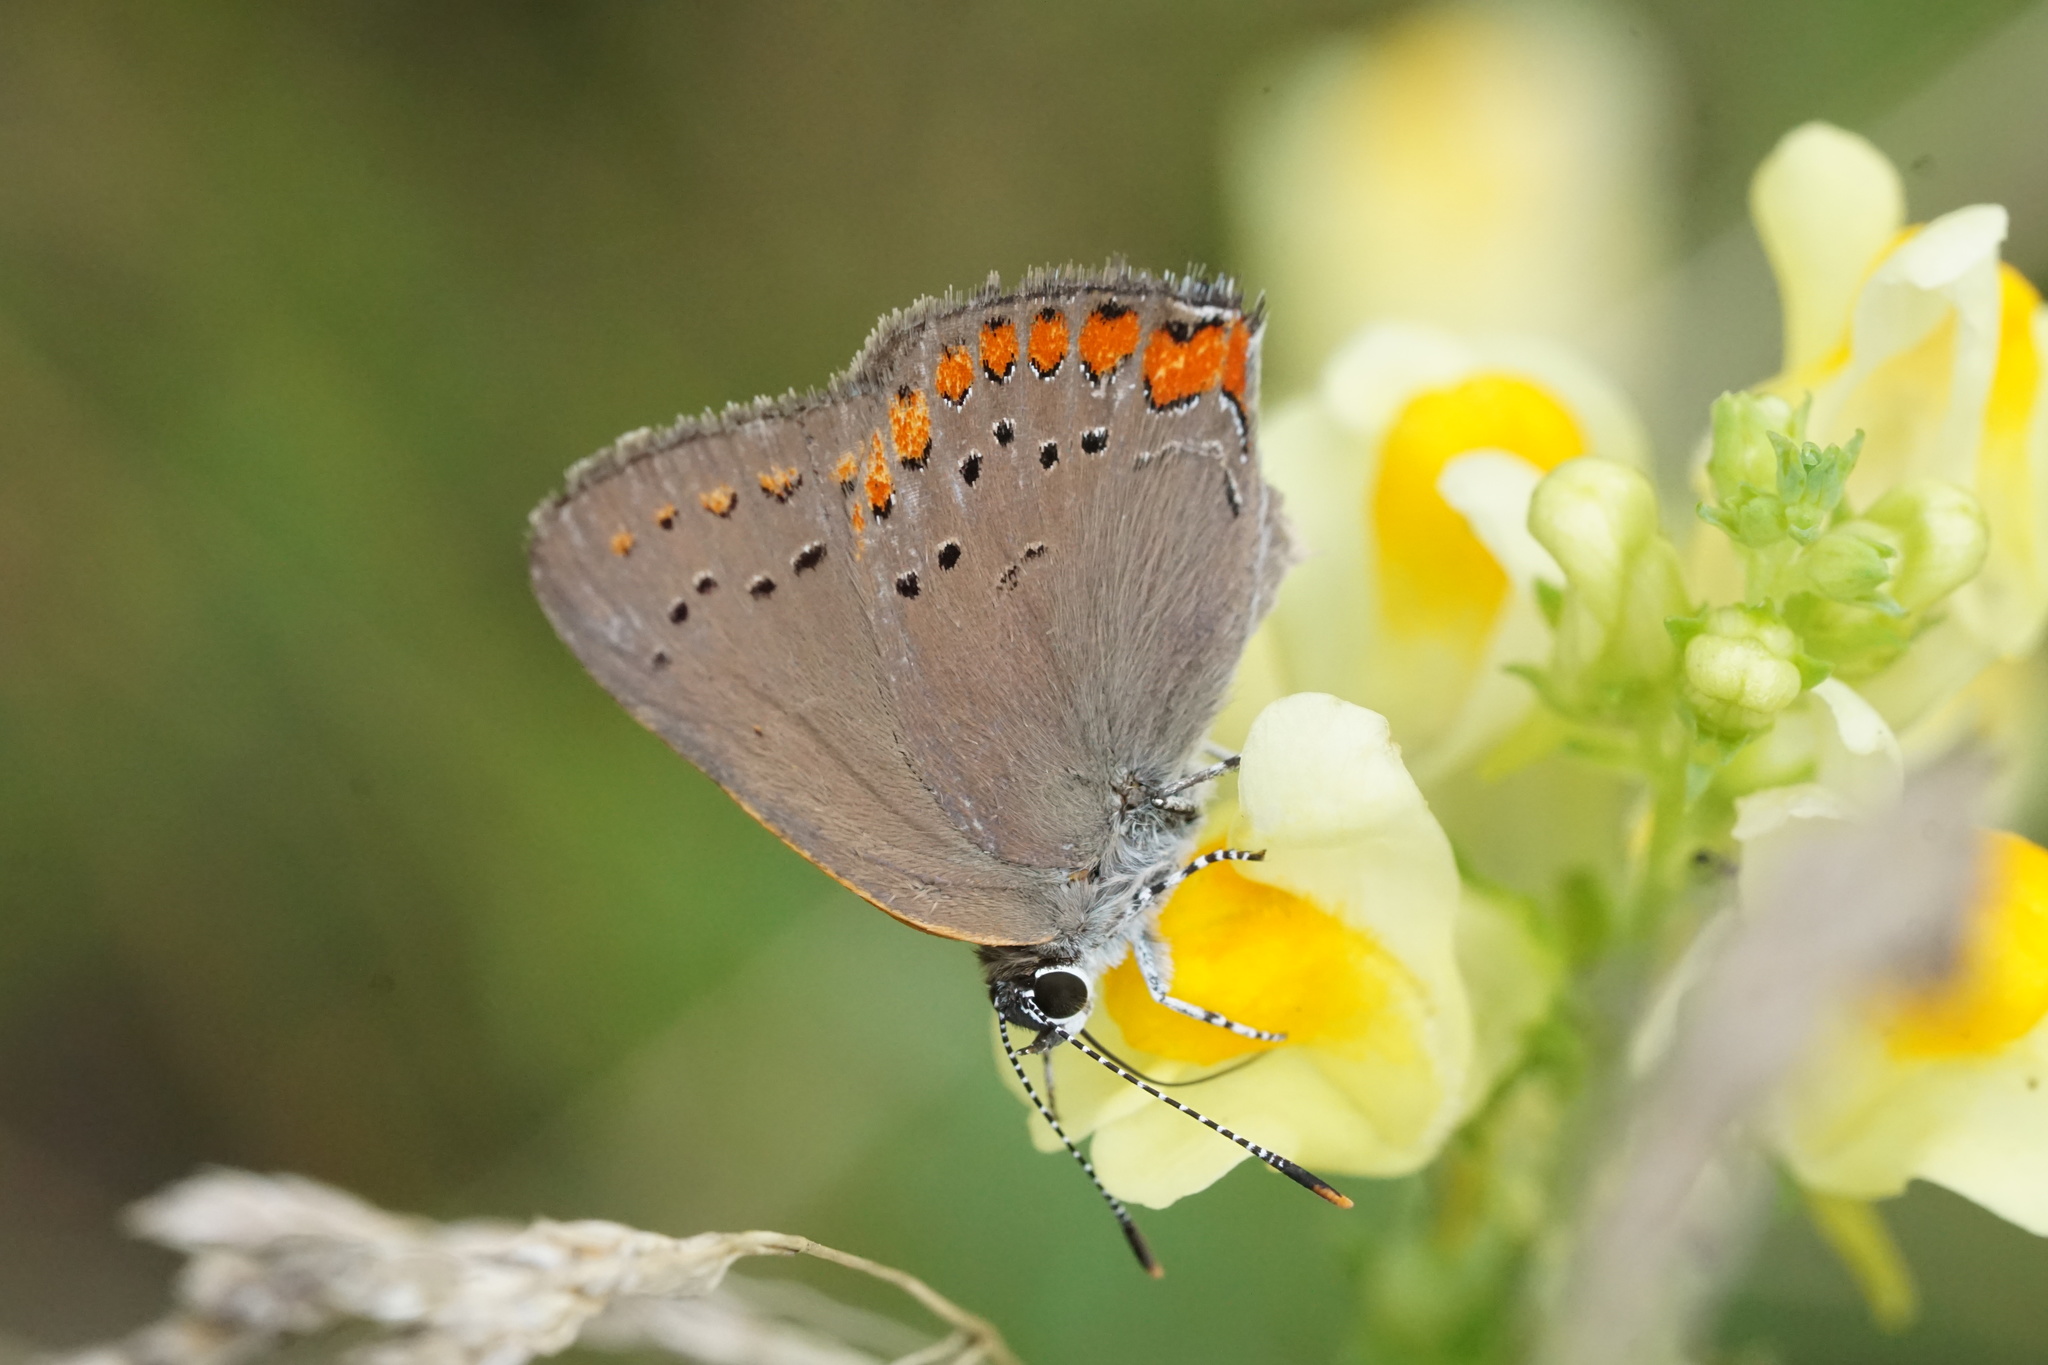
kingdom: Animalia
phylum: Arthropoda
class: Insecta
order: Lepidoptera
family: Lycaenidae
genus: Harkenclenus
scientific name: Harkenclenus titus
